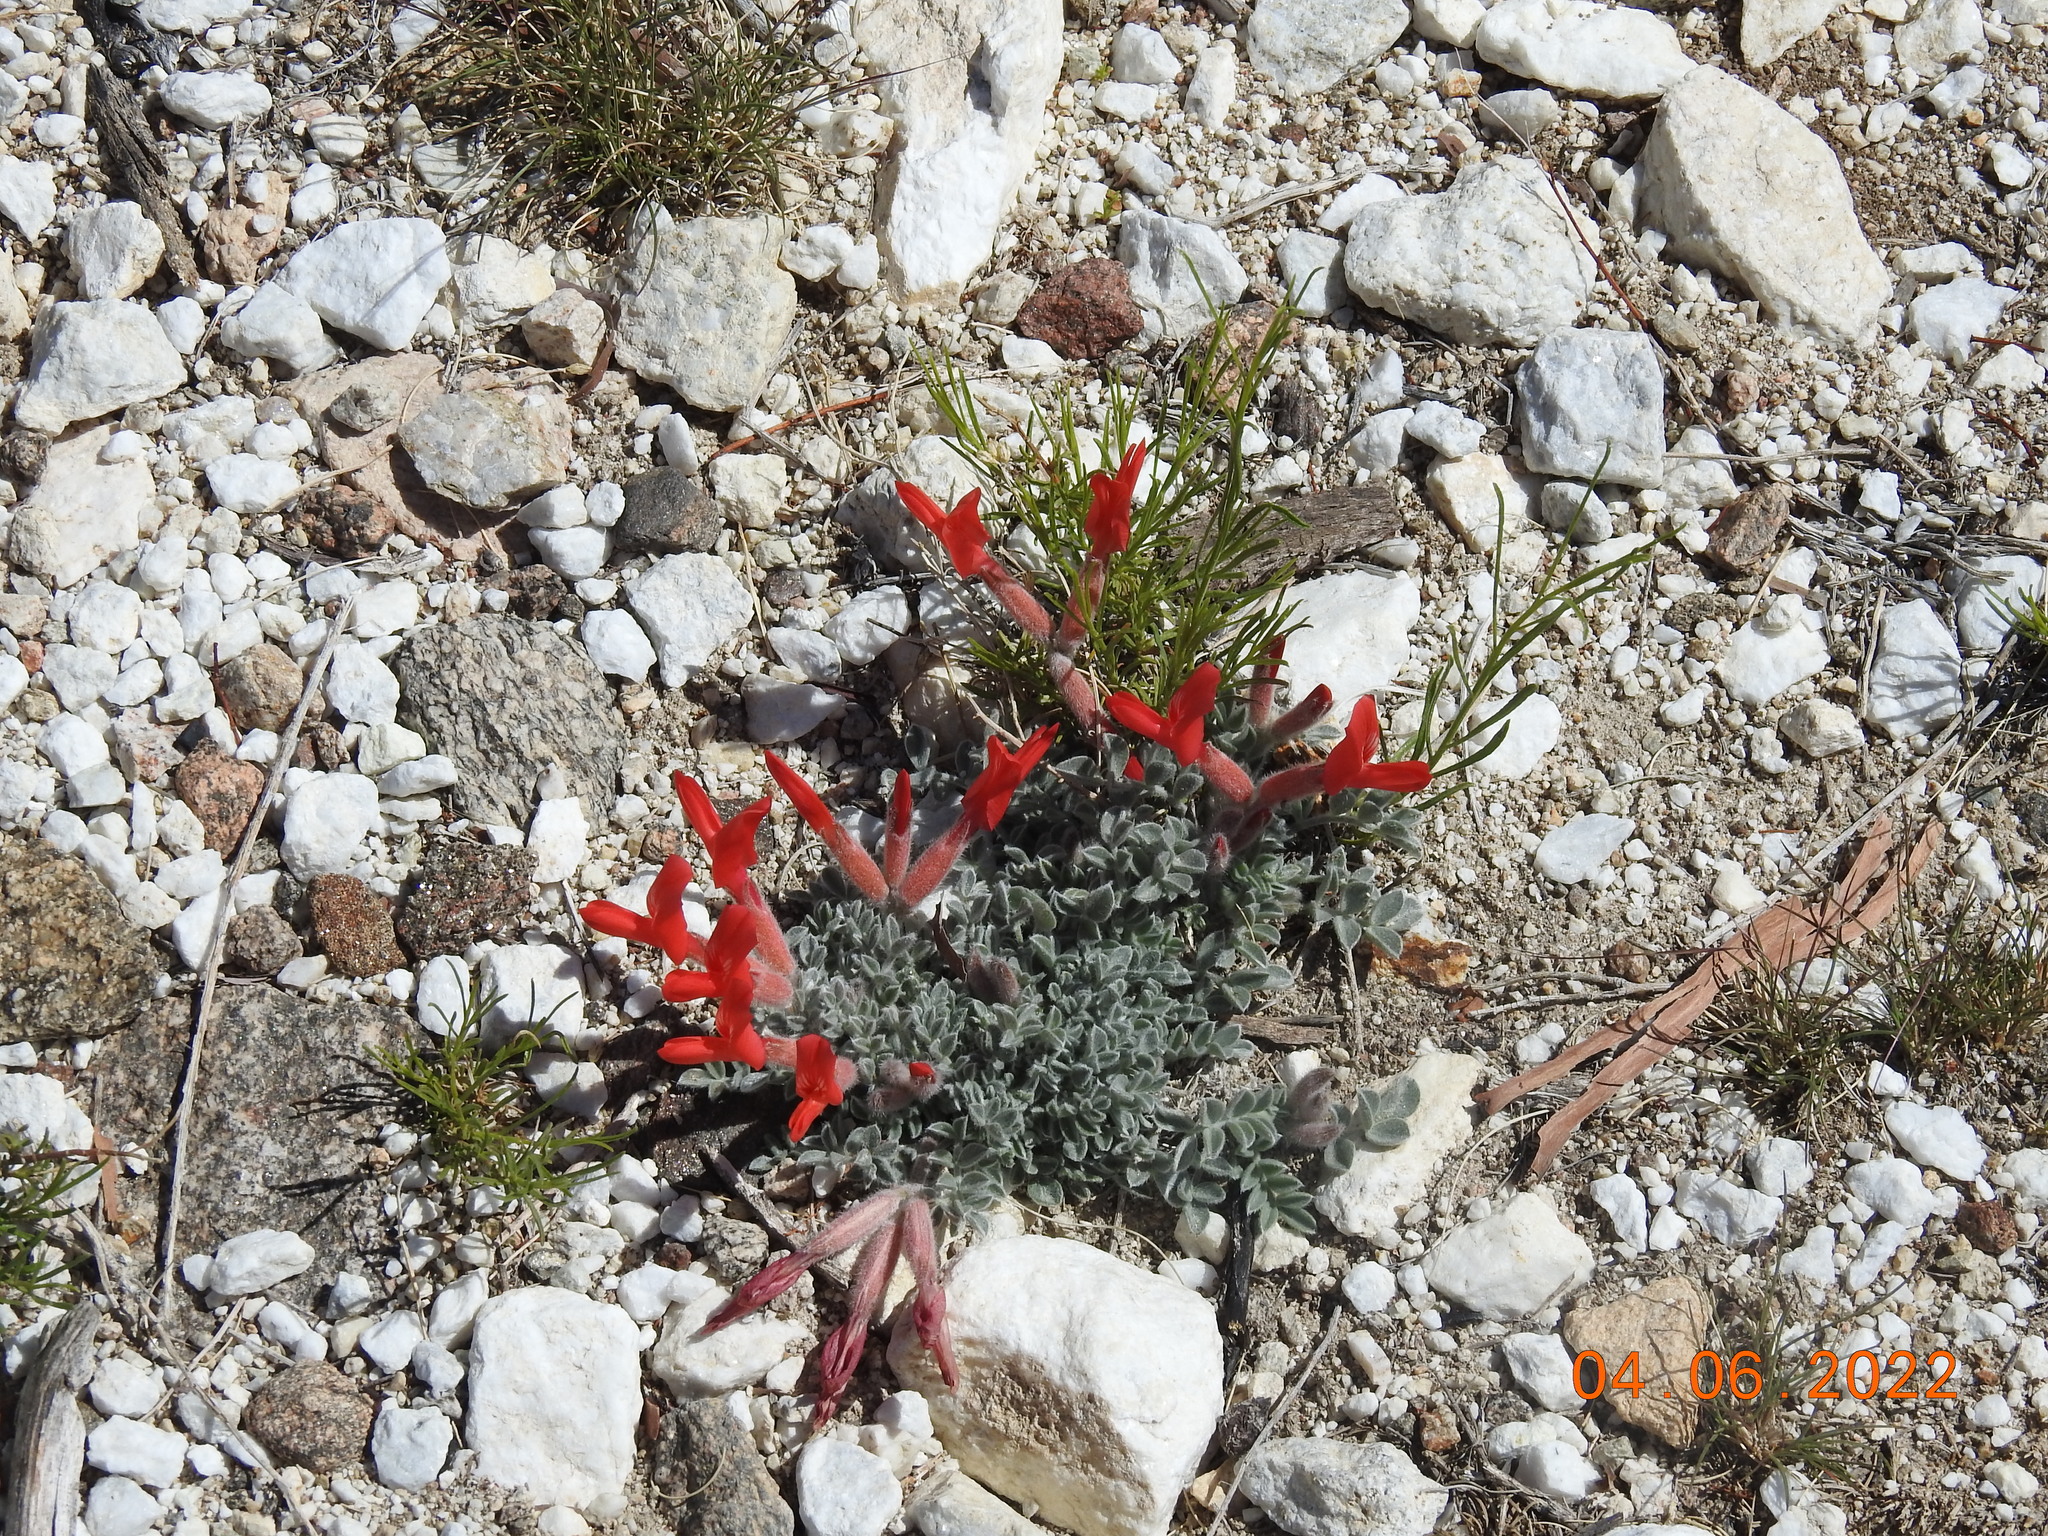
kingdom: Plantae
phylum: Tracheophyta
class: Magnoliopsida
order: Fabales
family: Fabaceae
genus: Astragalus
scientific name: Astragalus coccineus
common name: Scarlet milk-vetch
